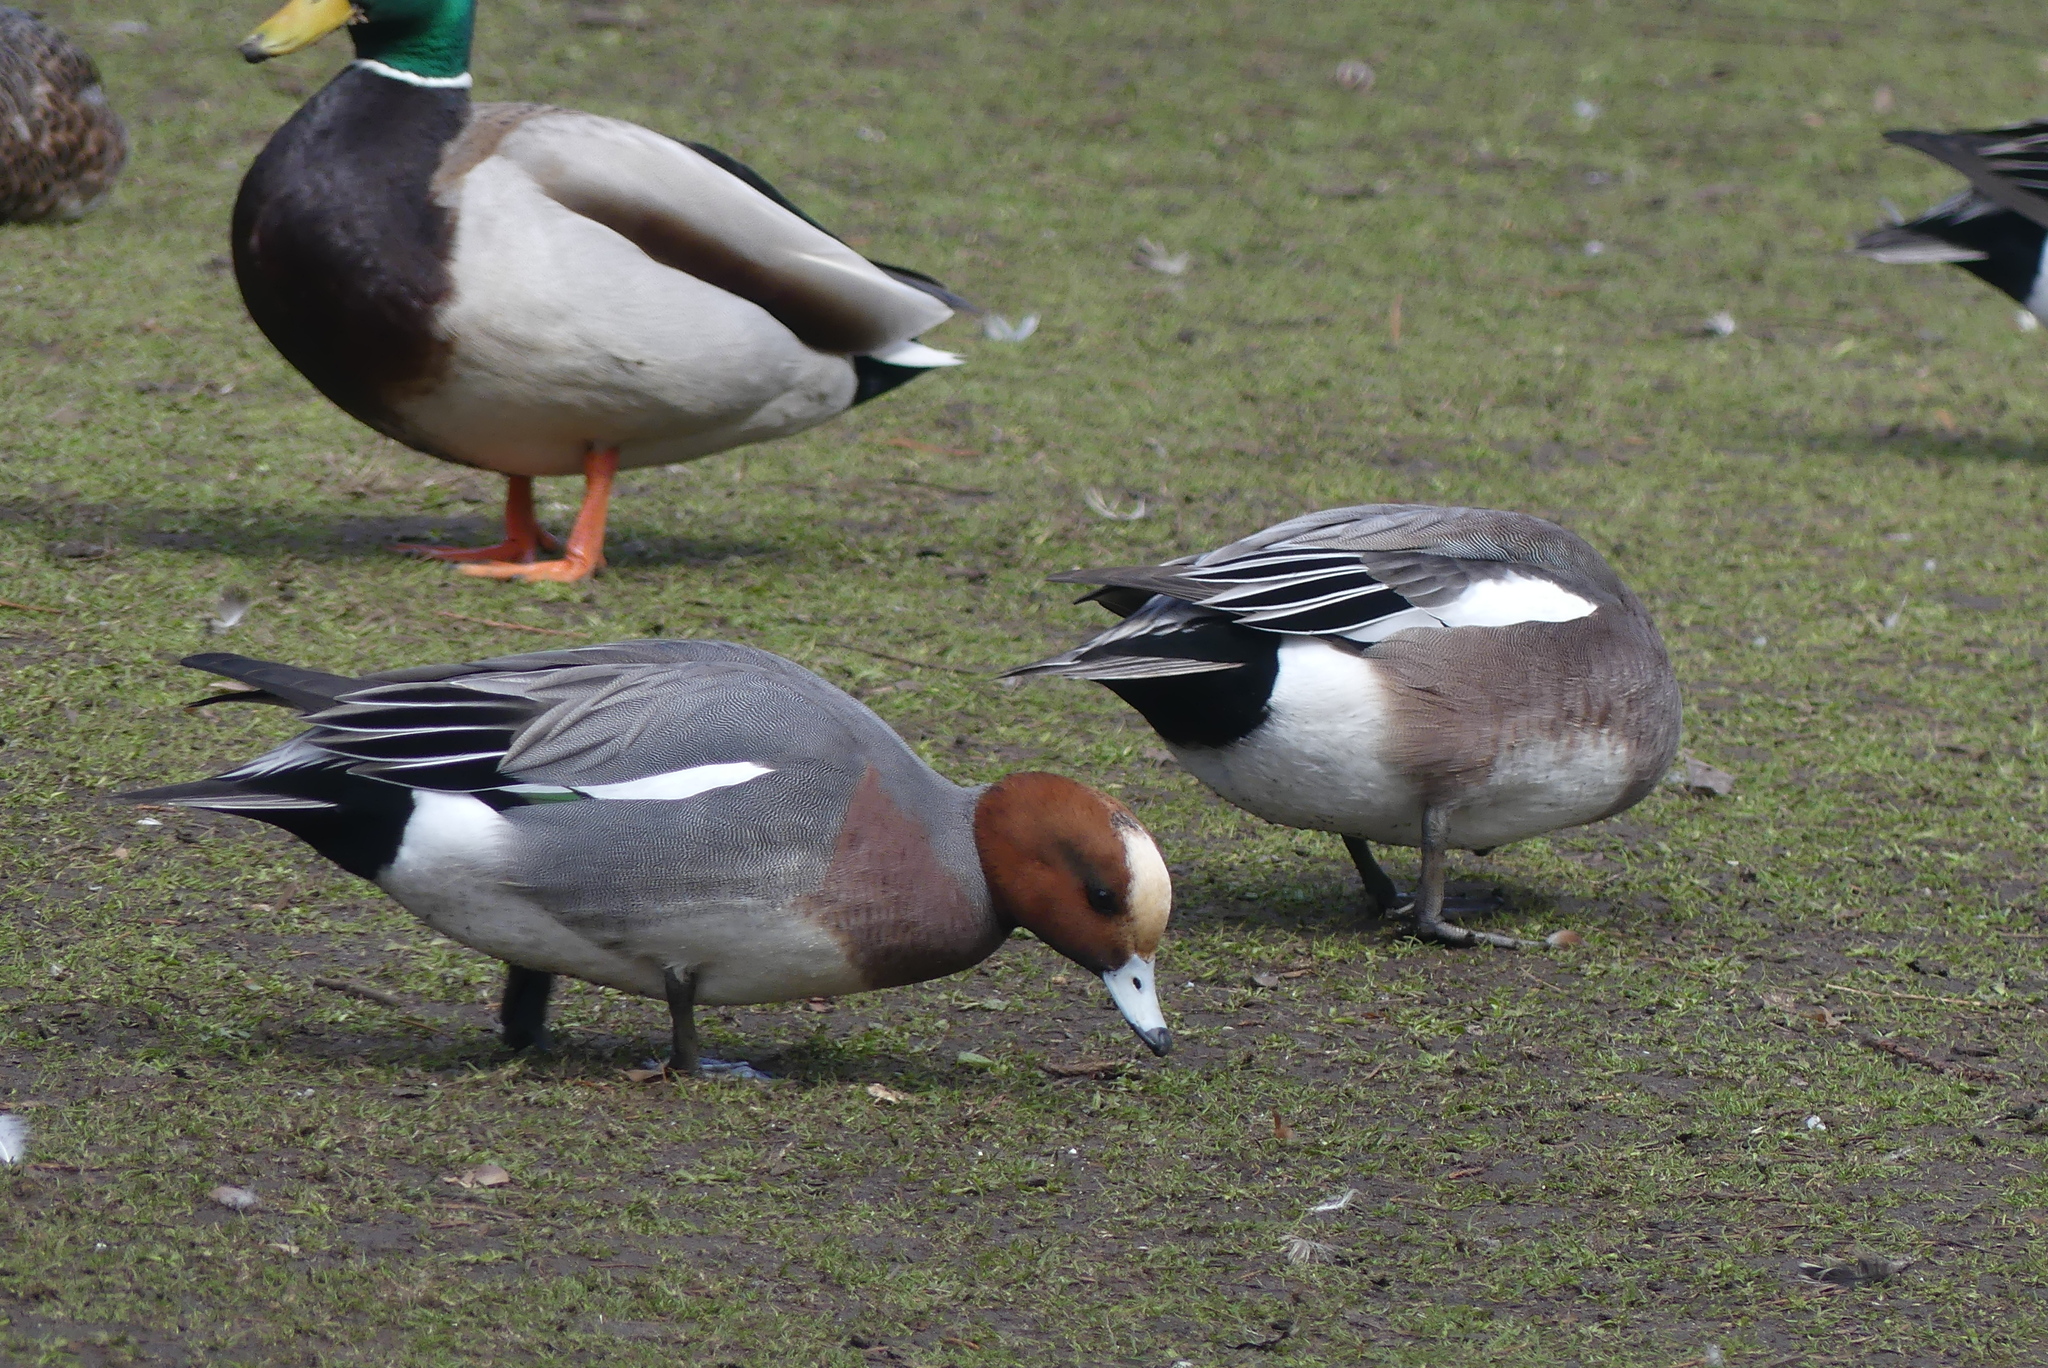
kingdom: Animalia
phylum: Chordata
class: Aves
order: Anseriformes
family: Anatidae
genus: Mareca
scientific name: Mareca penelope
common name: Eurasian wigeon
